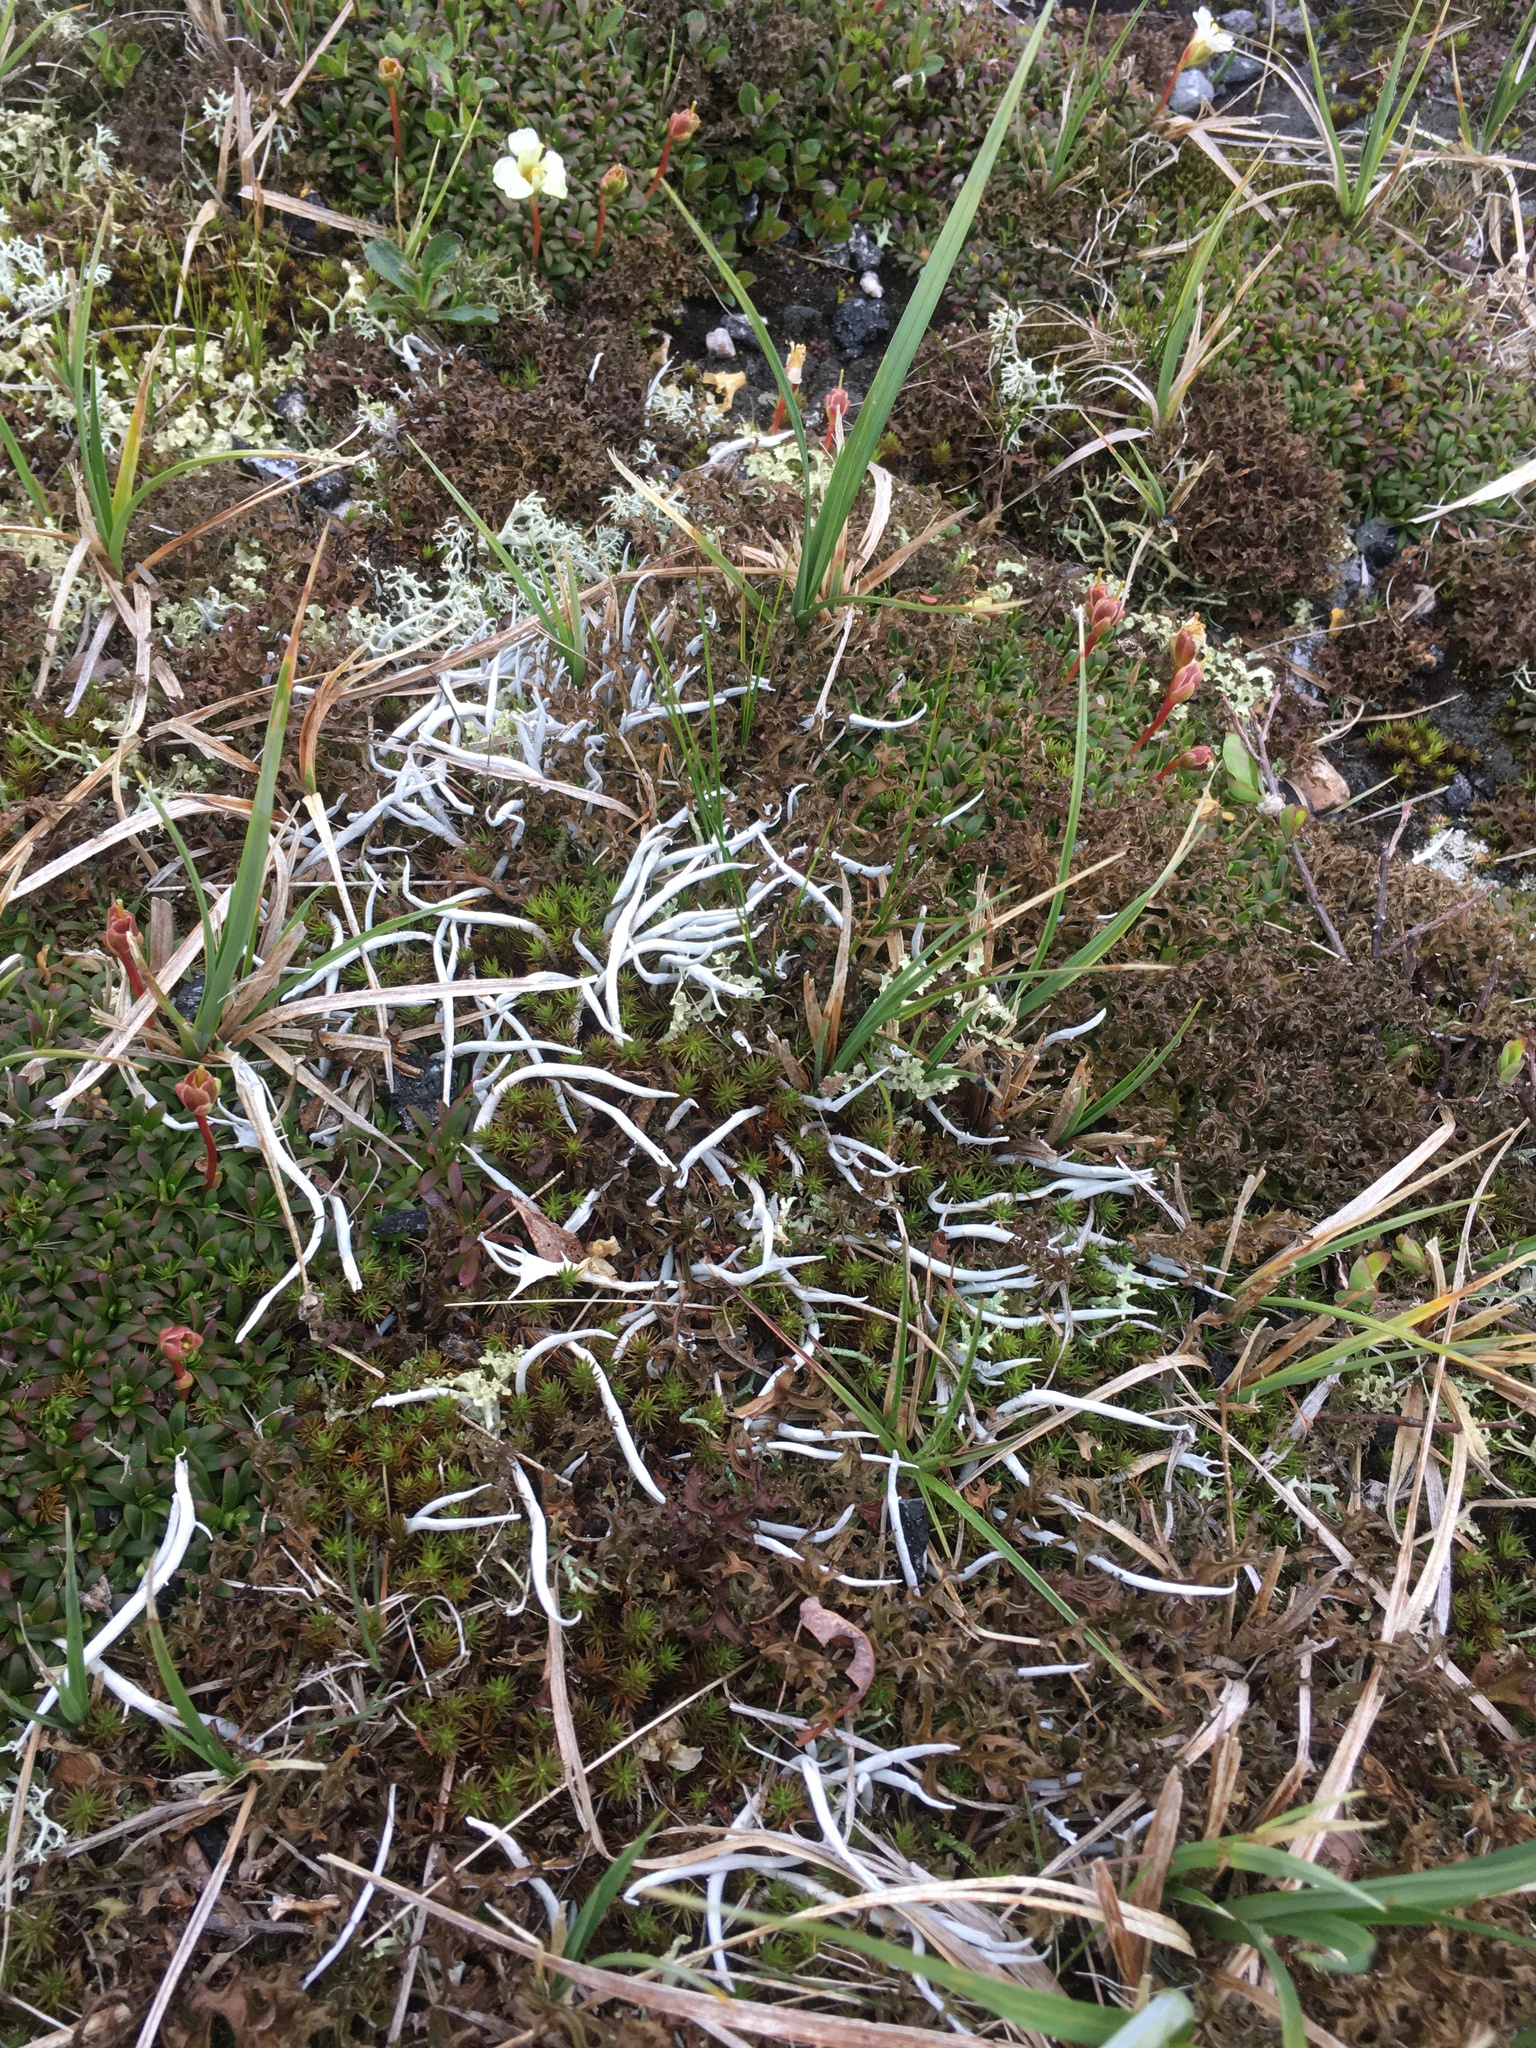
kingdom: Fungi
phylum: Ascomycota
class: Lecanoromycetes
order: Pertusariales
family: Icmadophilaceae
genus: Thamnolia
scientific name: Thamnolia vermicularis
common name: Whiteworm lichen
